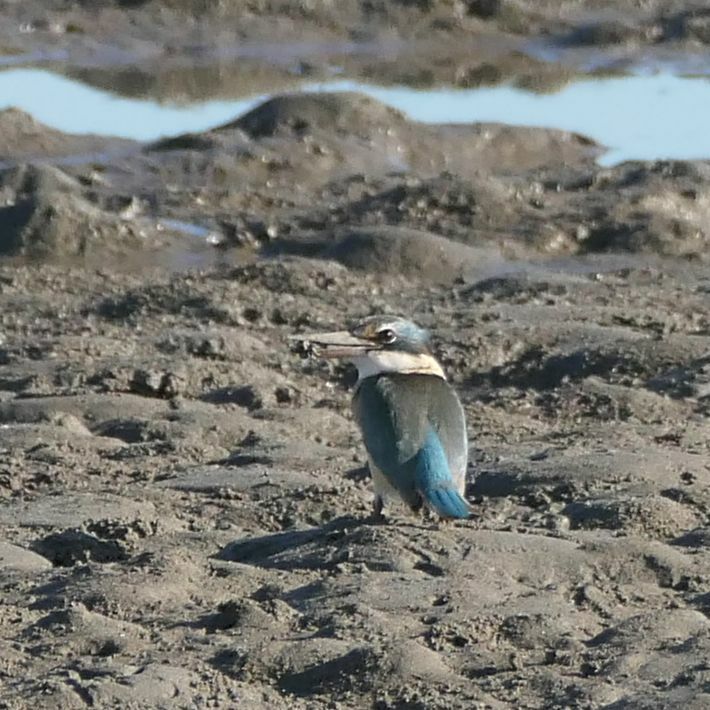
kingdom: Animalia
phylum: Chordata
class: Aves
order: Coraciiformes
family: Alcedinidae
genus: Todiramphus
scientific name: Todiramphus sordidus
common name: Torresian kingfisher
